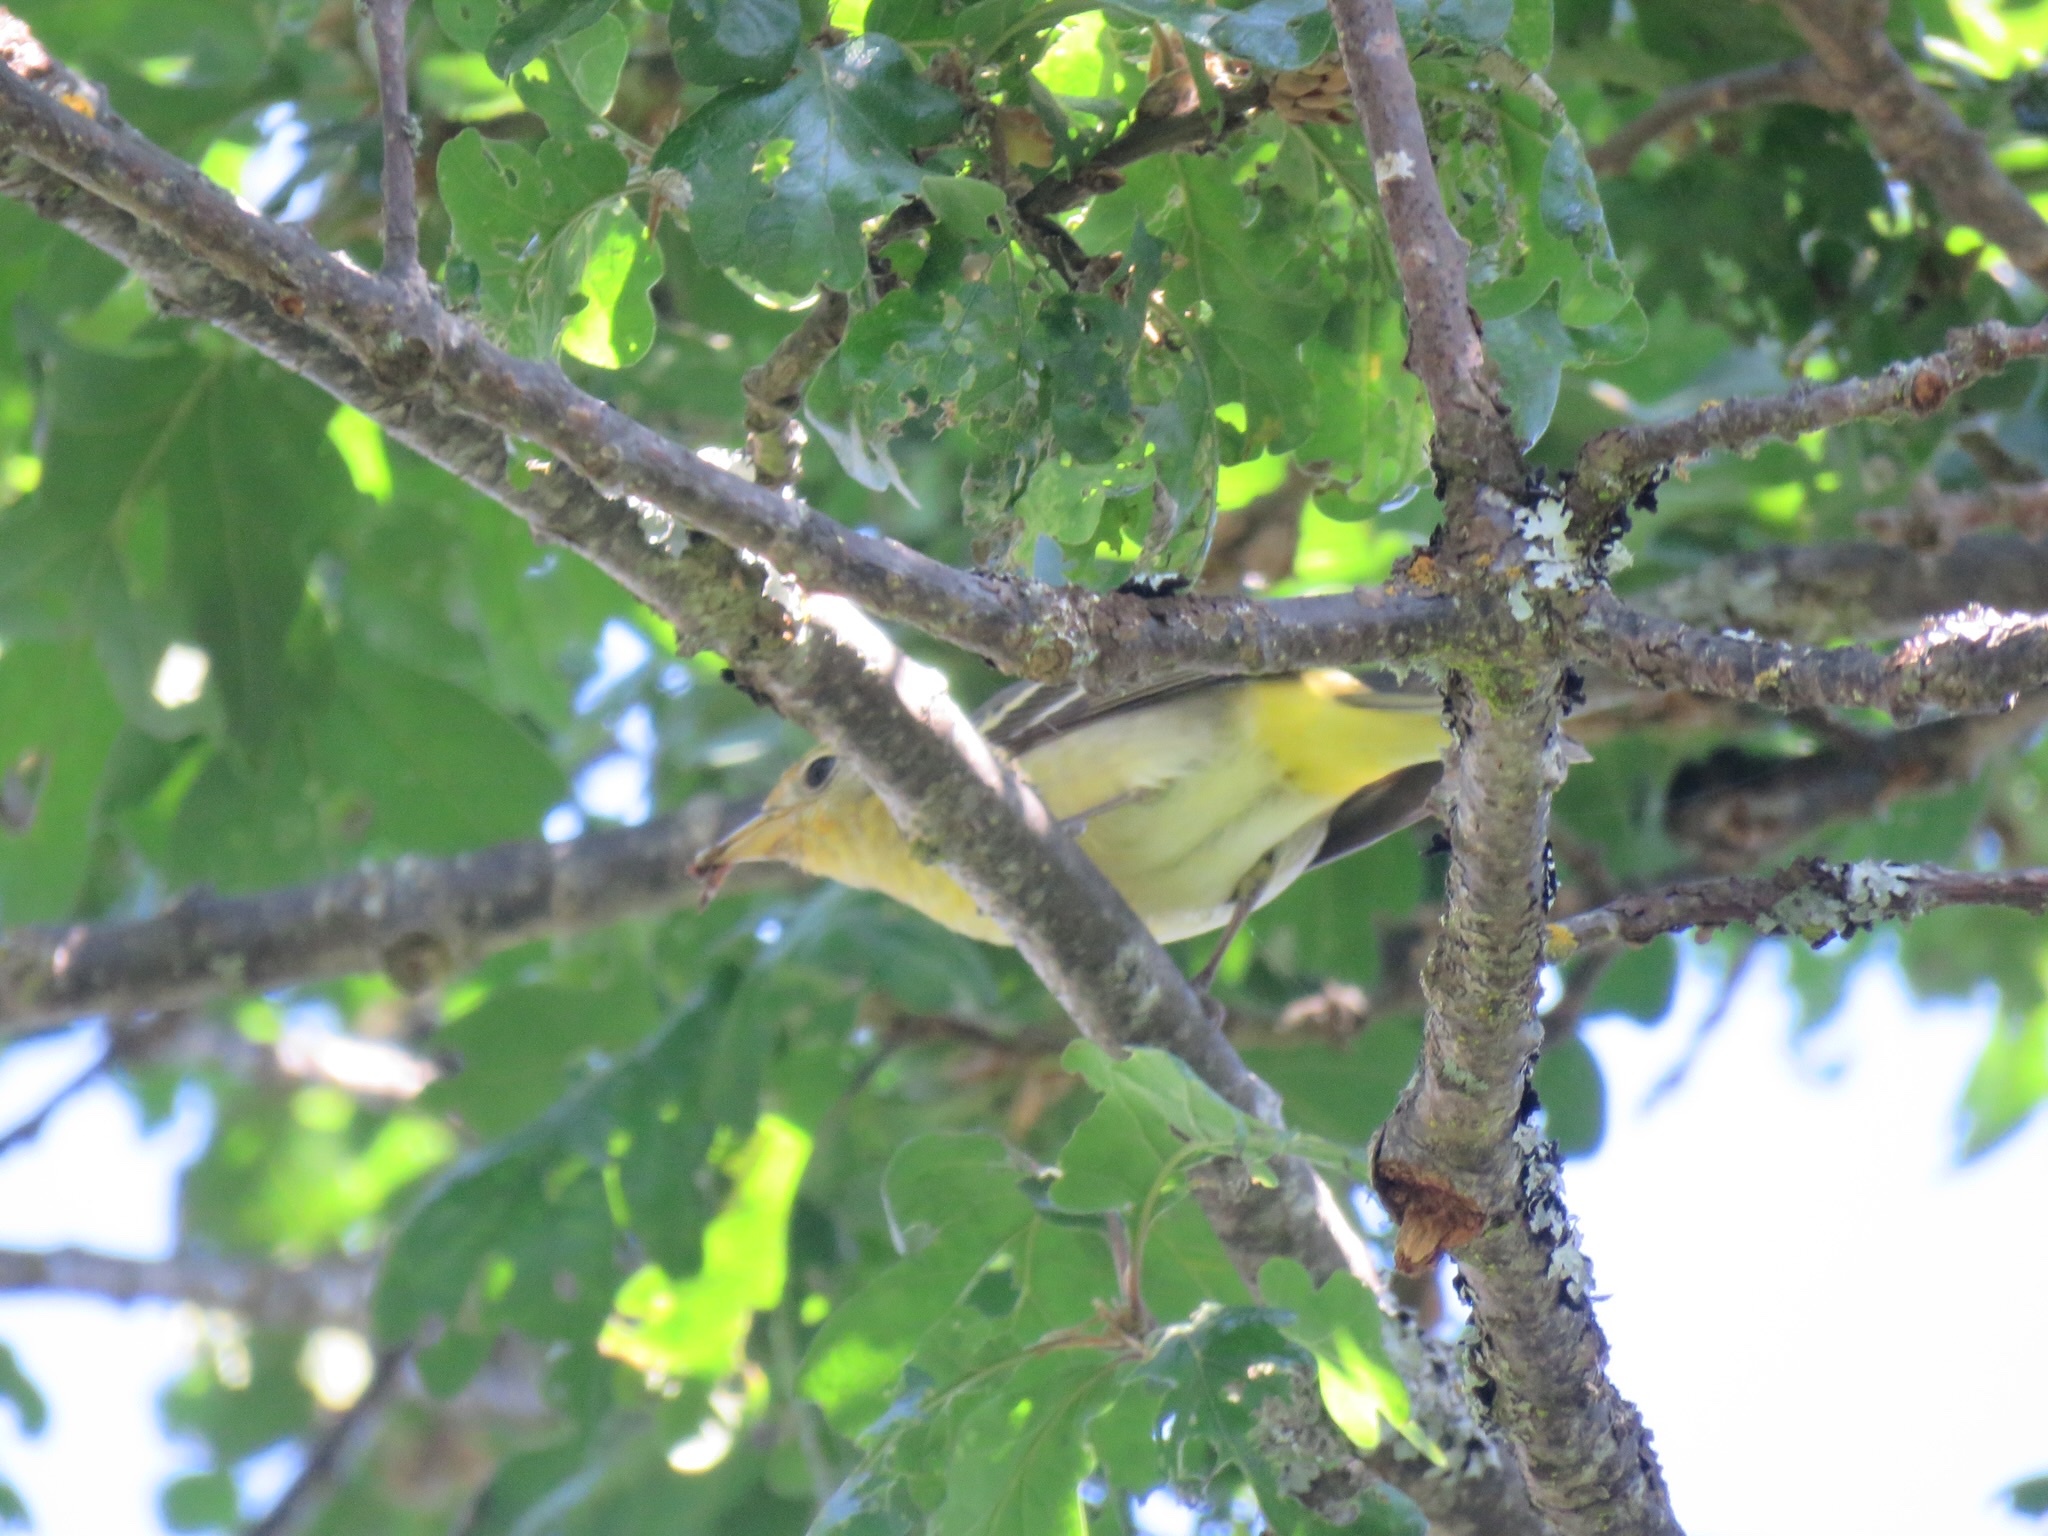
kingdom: Animalia
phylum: Chordata
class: Aves
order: Passeriformes
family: Cardinalidae
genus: Piranga
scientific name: Piranga ludoviciana
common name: Western tanager
